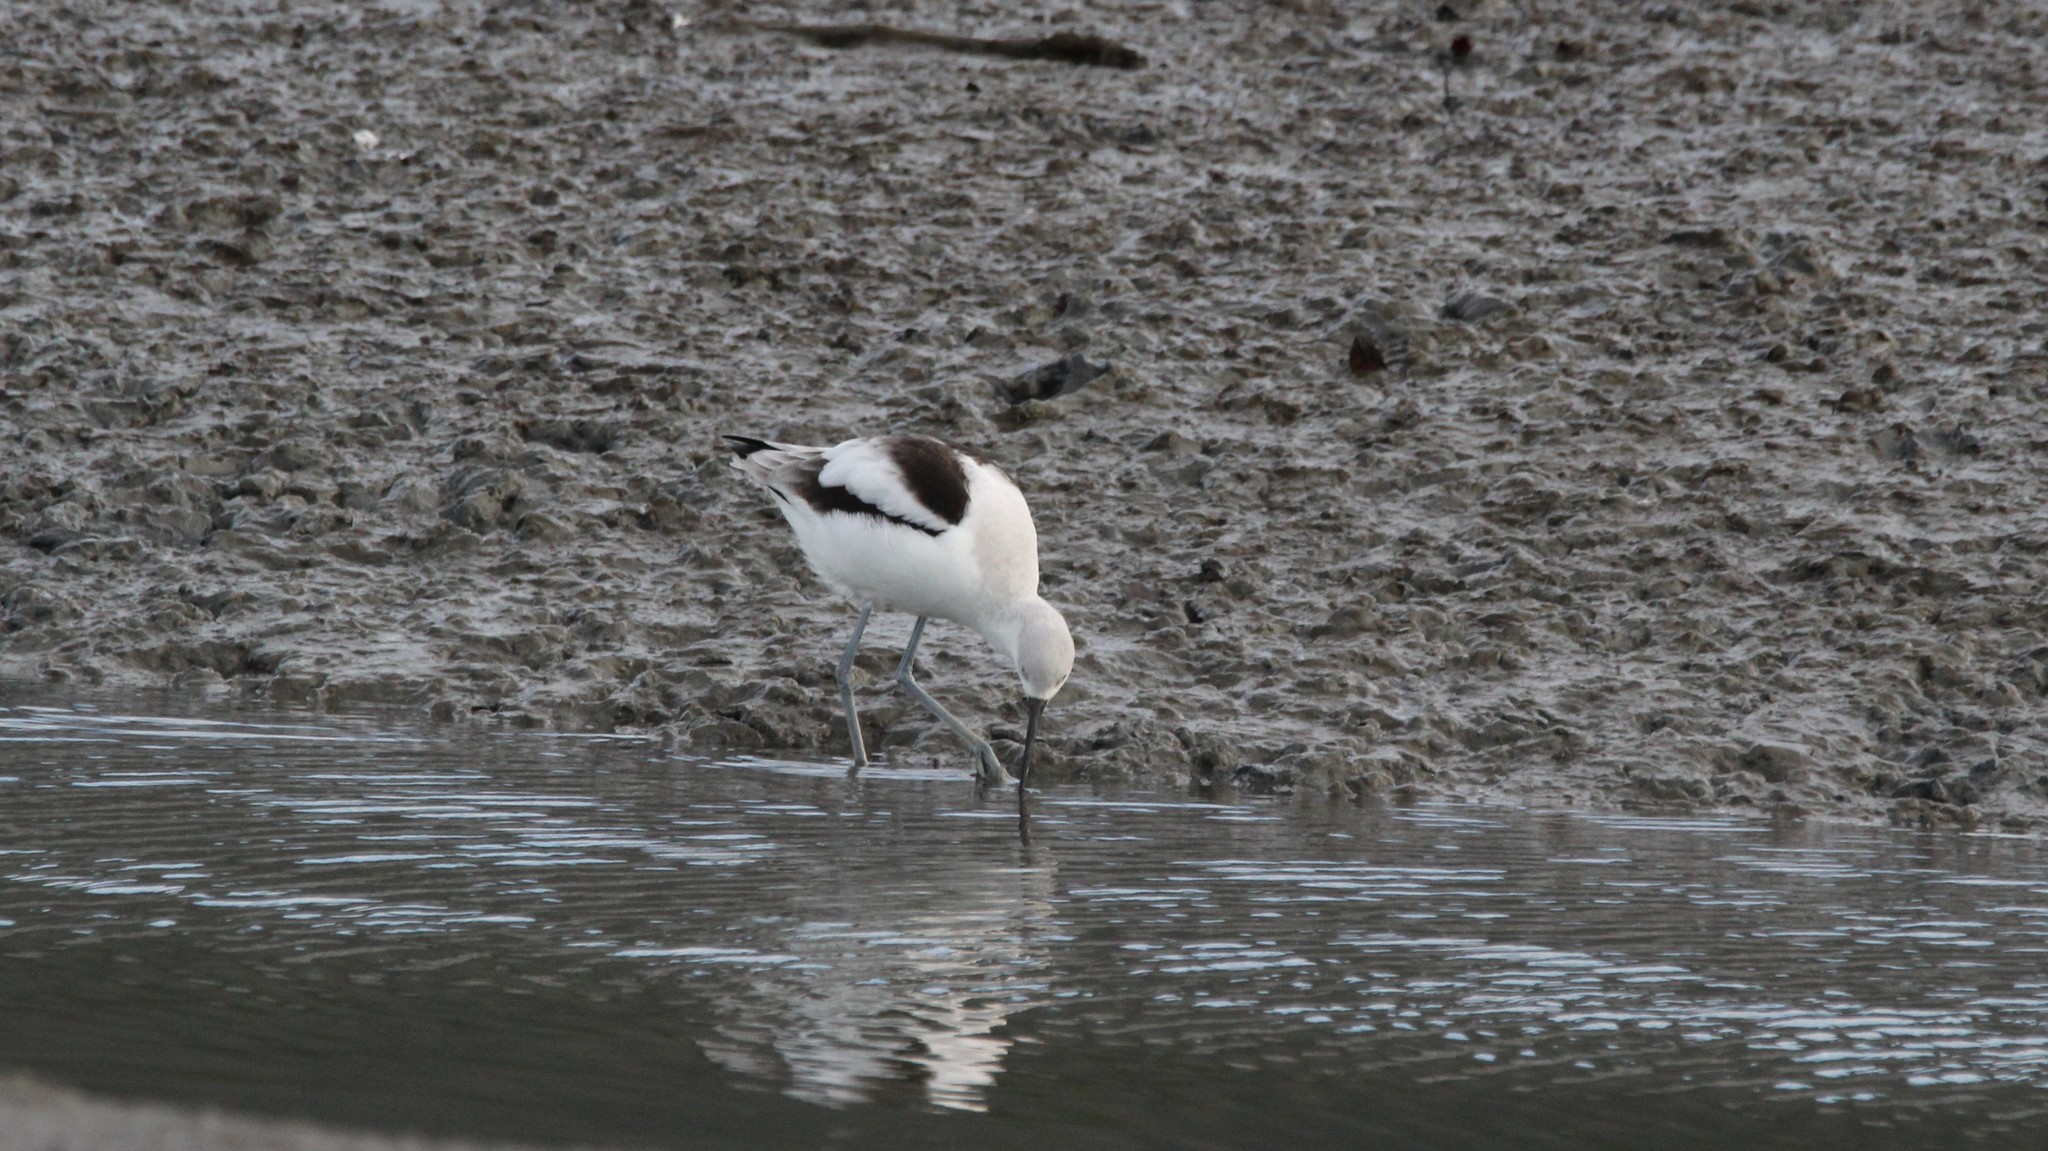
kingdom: Animalia
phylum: Chordata
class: Aves
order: Charadriiformes
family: Recurvirostridae
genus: Recurvirostra
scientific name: Recurvirostra americana
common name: American avocet
